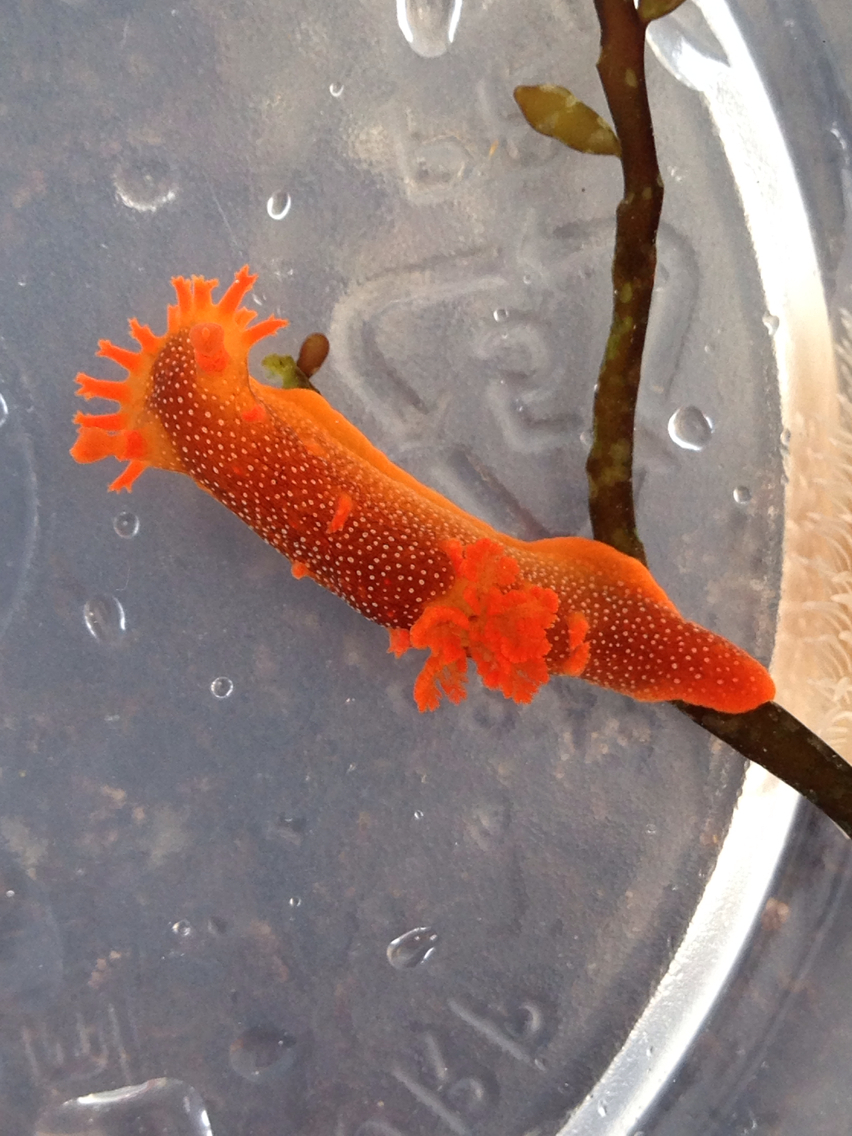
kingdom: Animalia
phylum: Mollusca
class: Gastropoda
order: Nudibranchia
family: Polyceridae
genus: Triopha
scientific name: Triopha maculata
